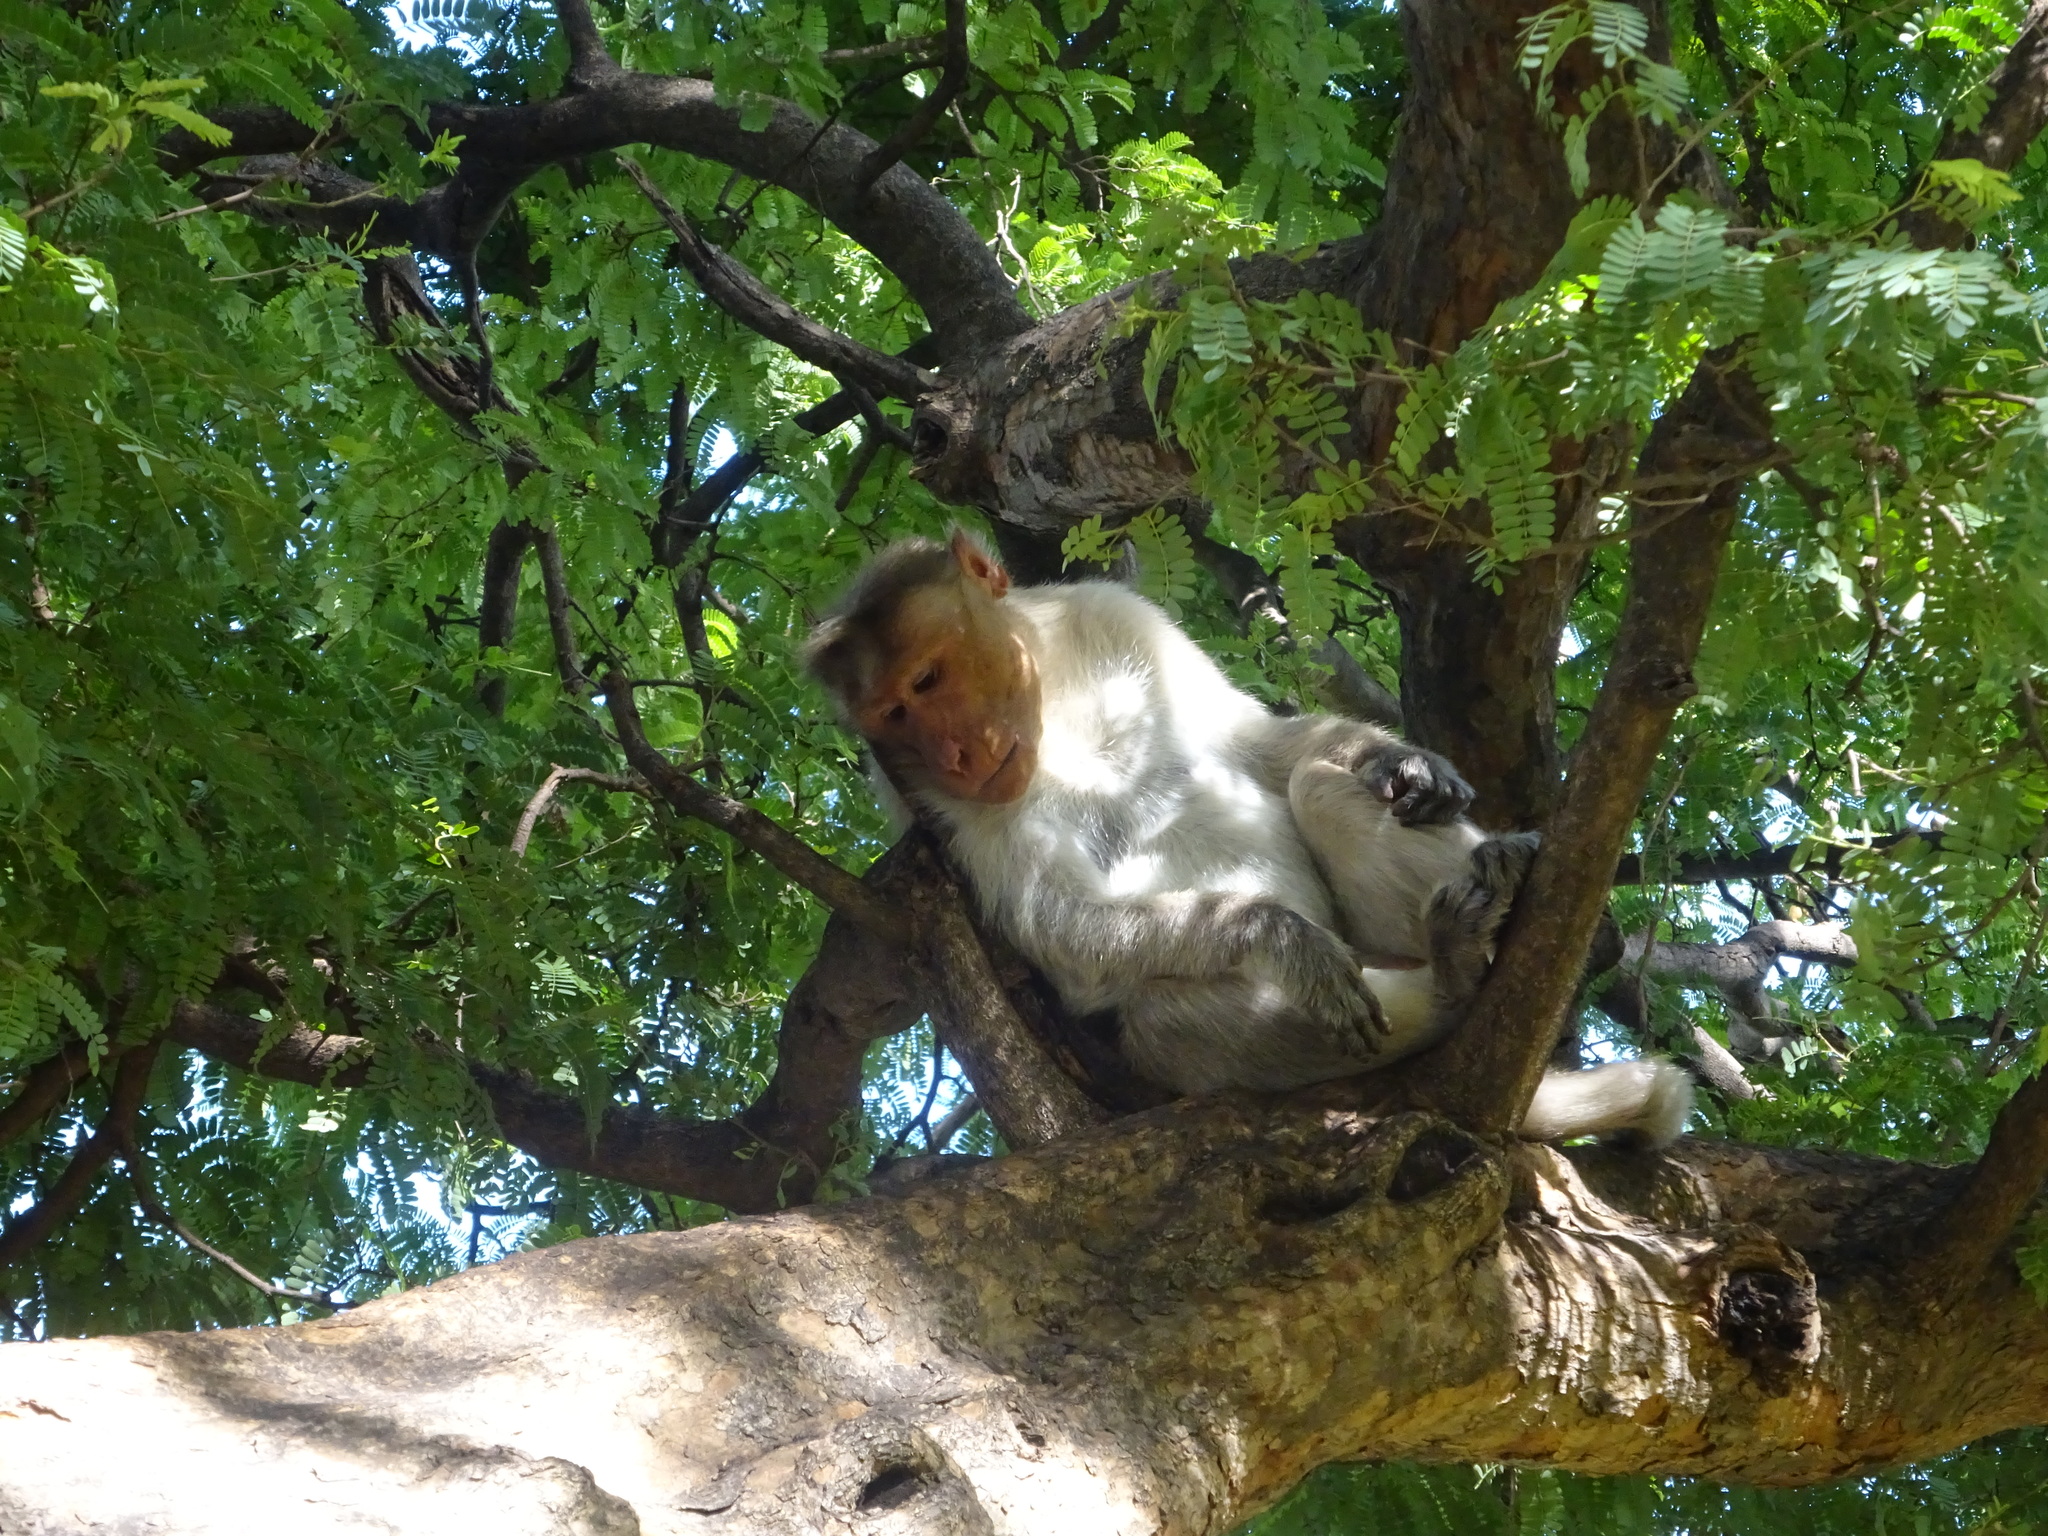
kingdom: Animalia
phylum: Chordata
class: Mammalia
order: Primates
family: Cercopithecidae
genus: Macaca
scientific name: Macaca radiata
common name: Bonnet macaque
